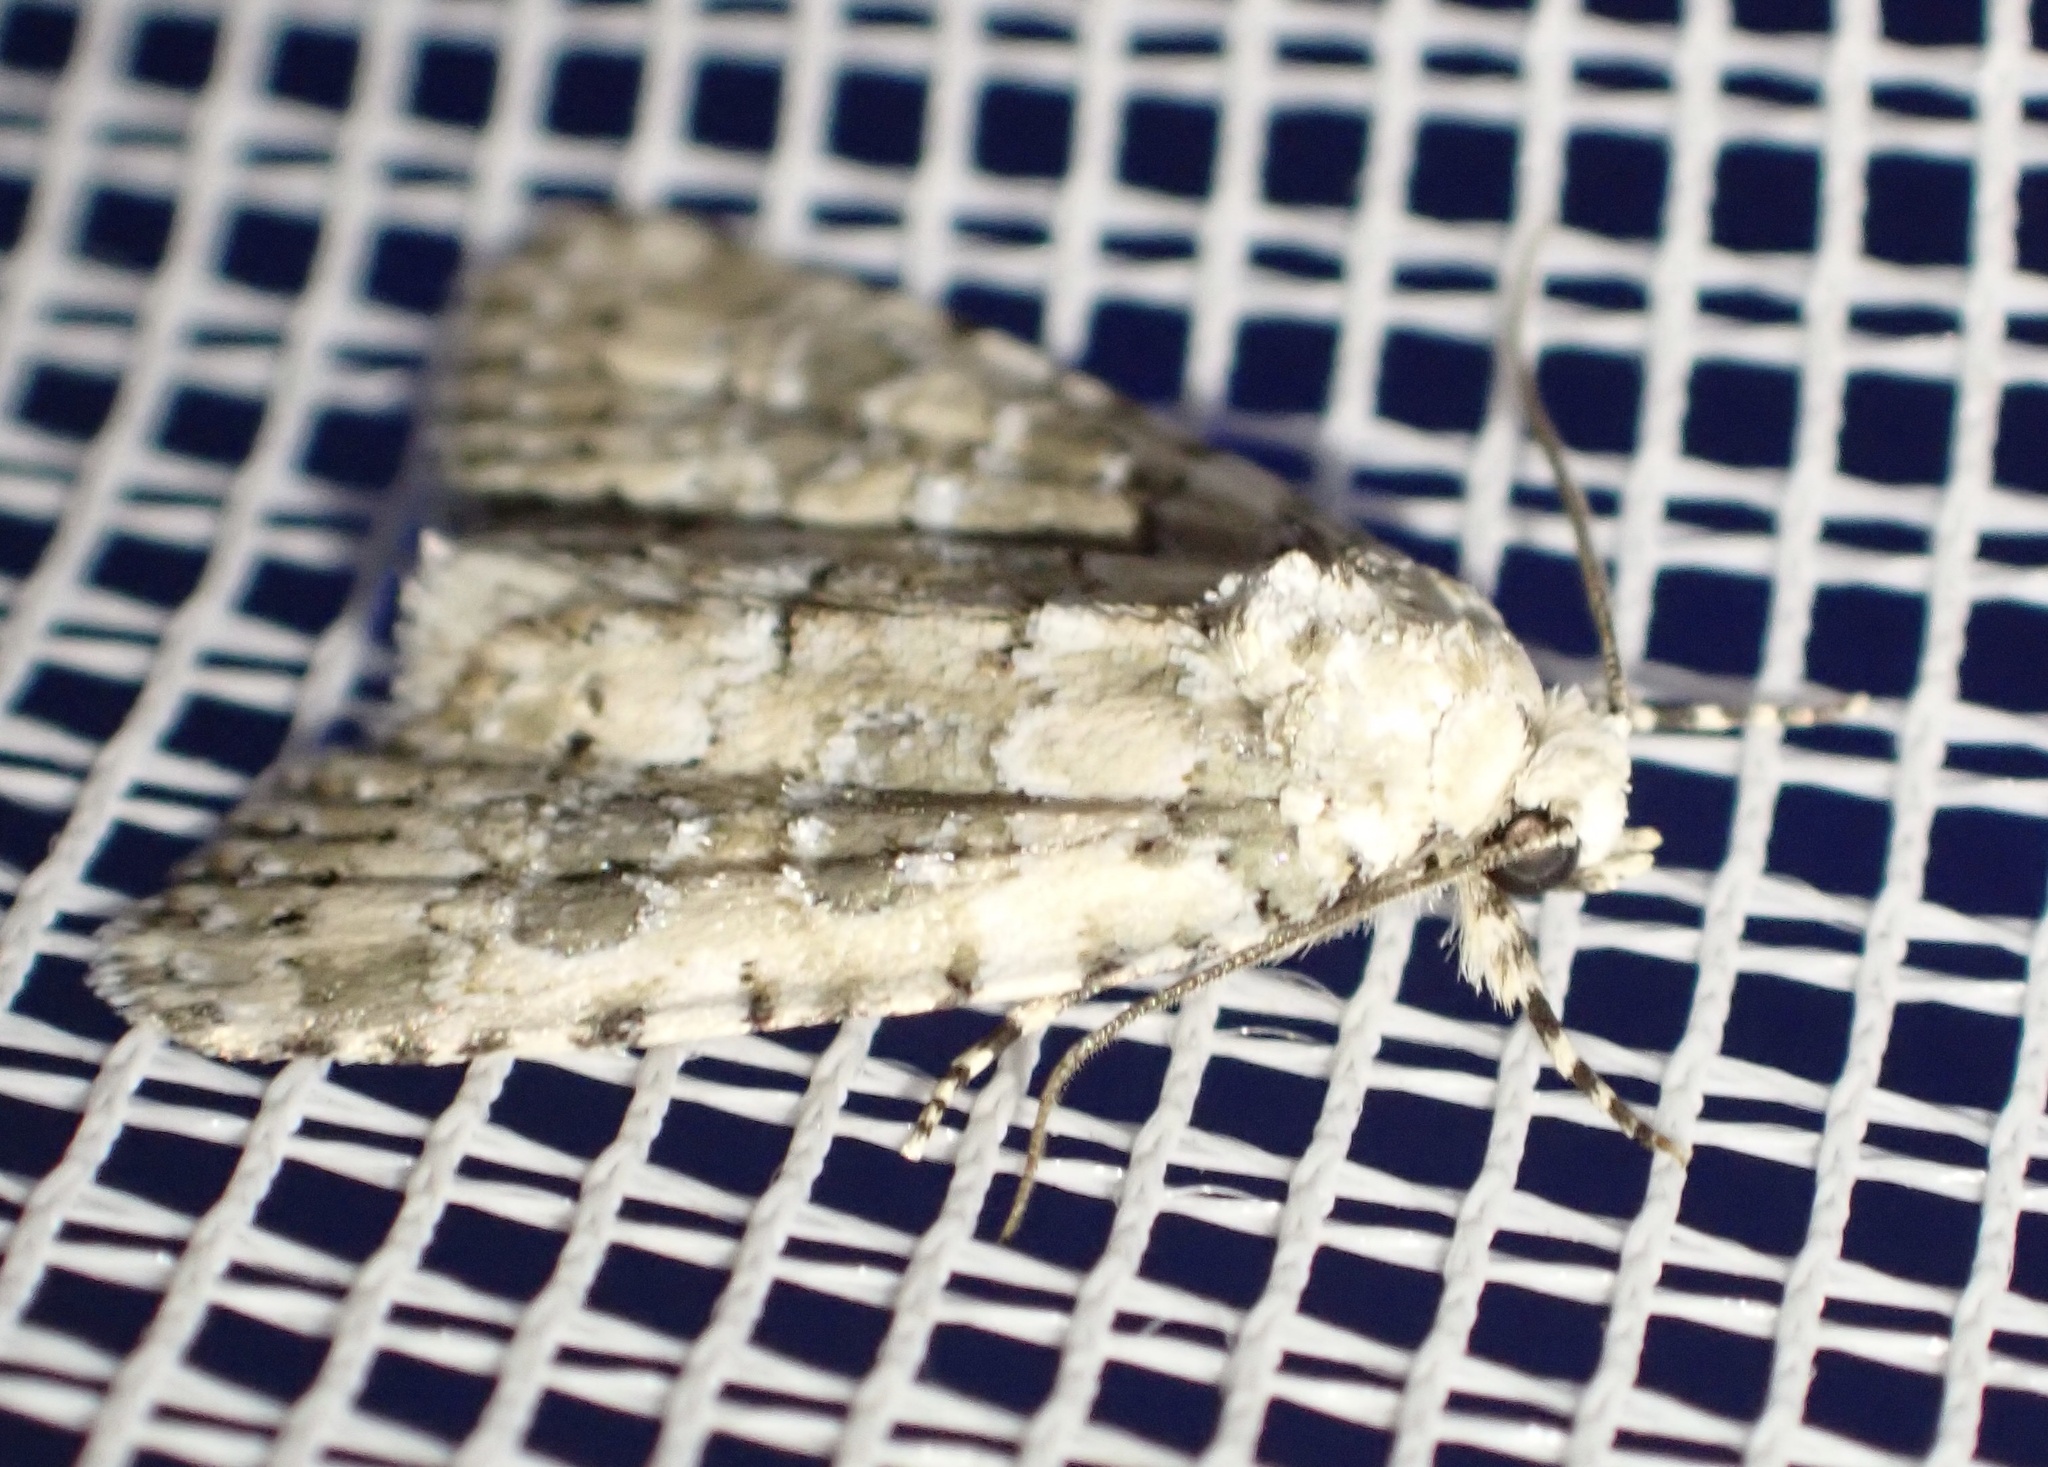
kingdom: Animalia
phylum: Arthropoda
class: Insecta
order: Lepidoptera
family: Noctuidae
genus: Bryophila
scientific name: Bryophila domestica
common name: Marbled beauty
